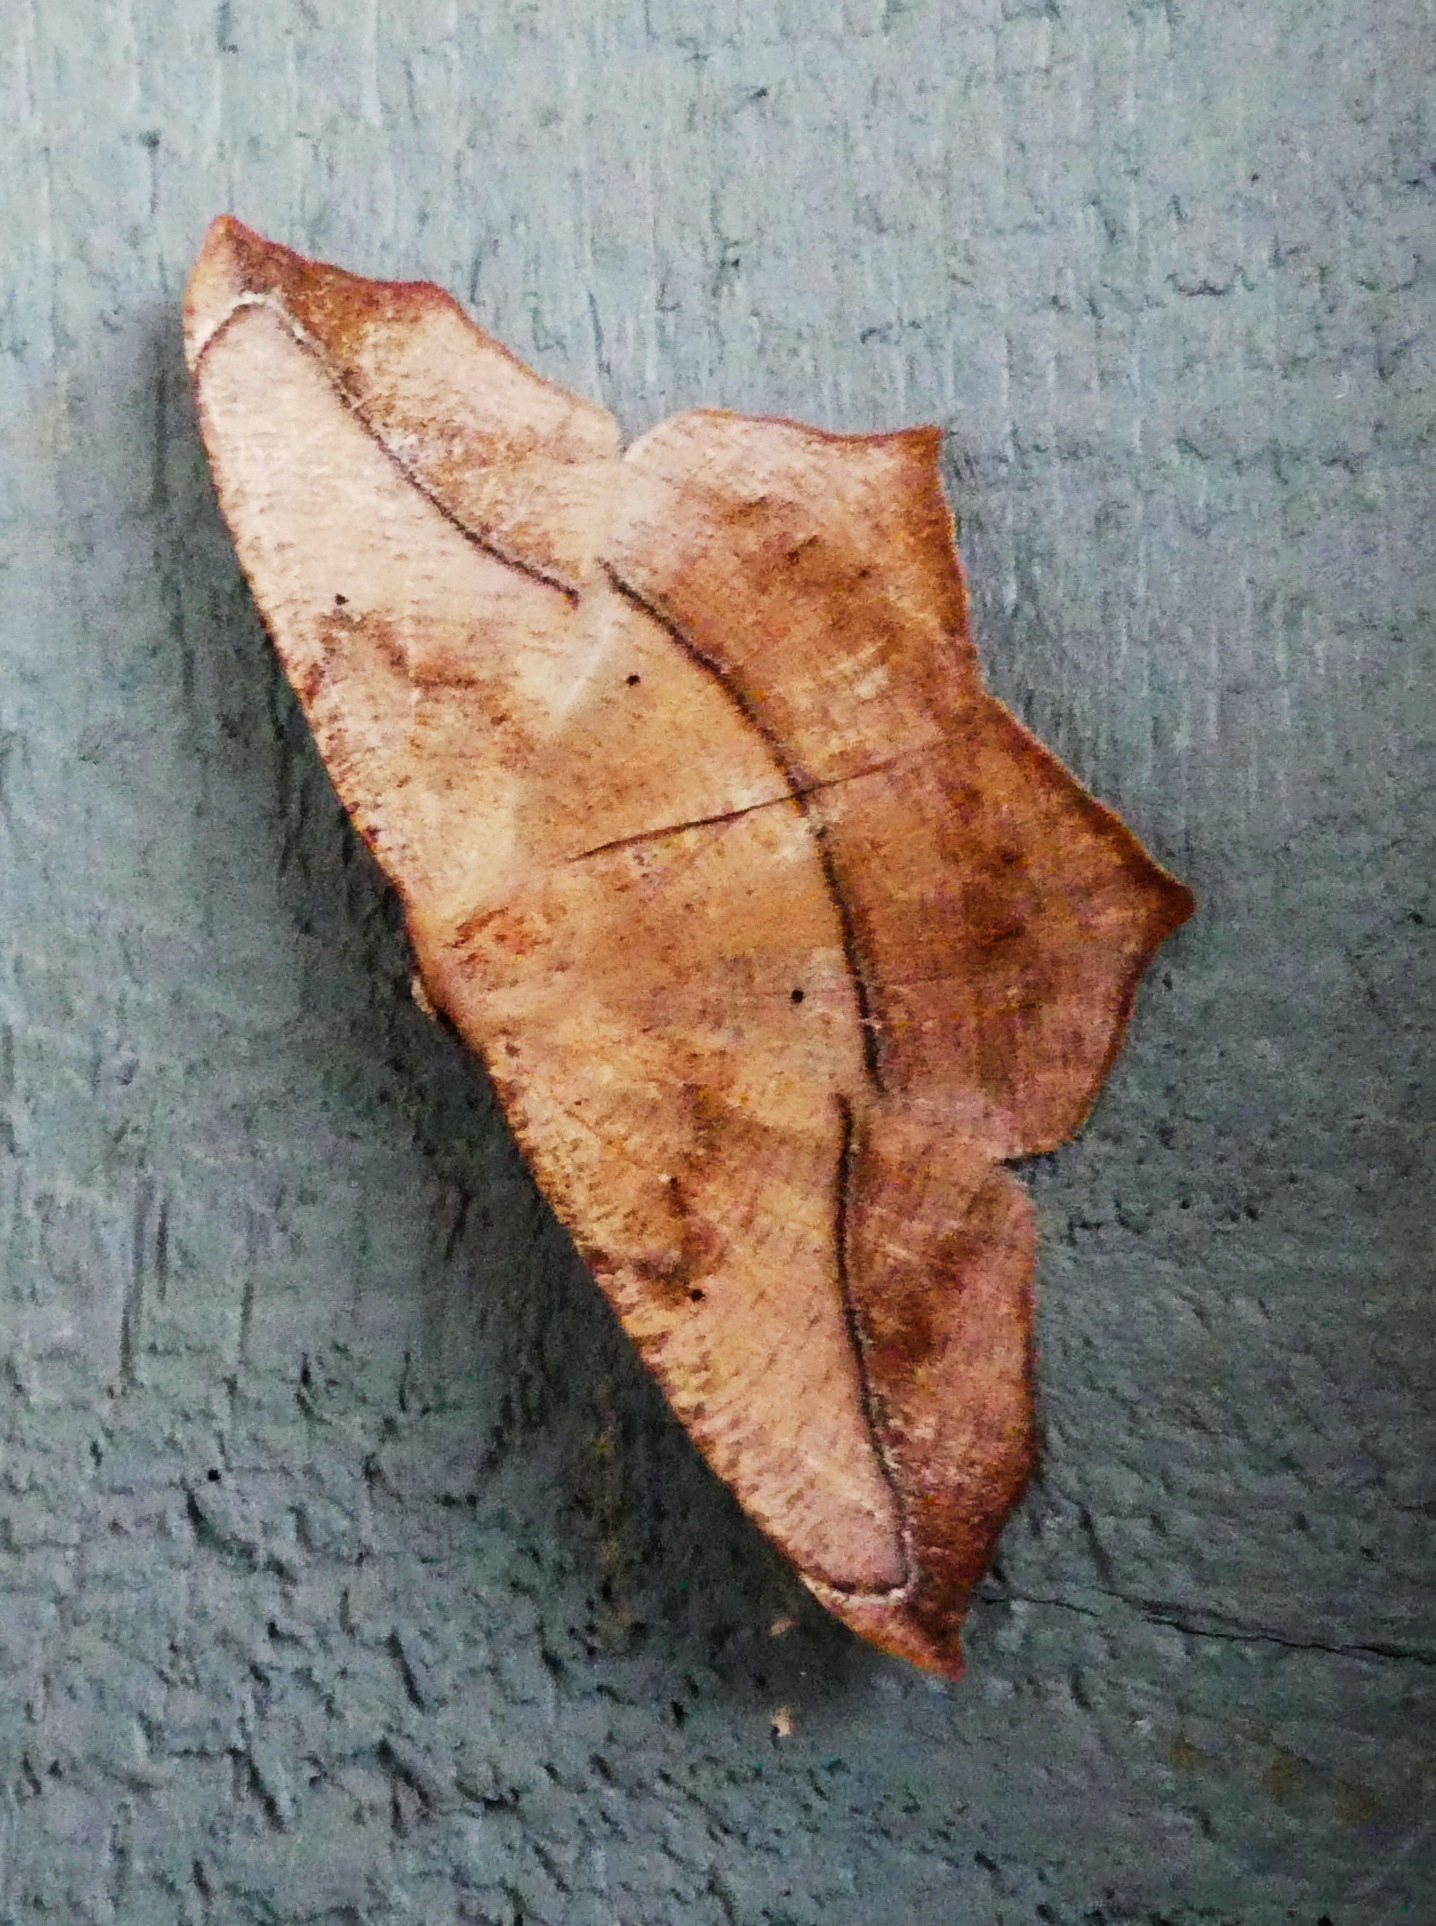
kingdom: Animalia
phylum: Arthropoda
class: Insecta
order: Lepidoptera
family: Geometridae
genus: Prochoerodes
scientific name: Prochoerodes lineola
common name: Large maple spanworm
